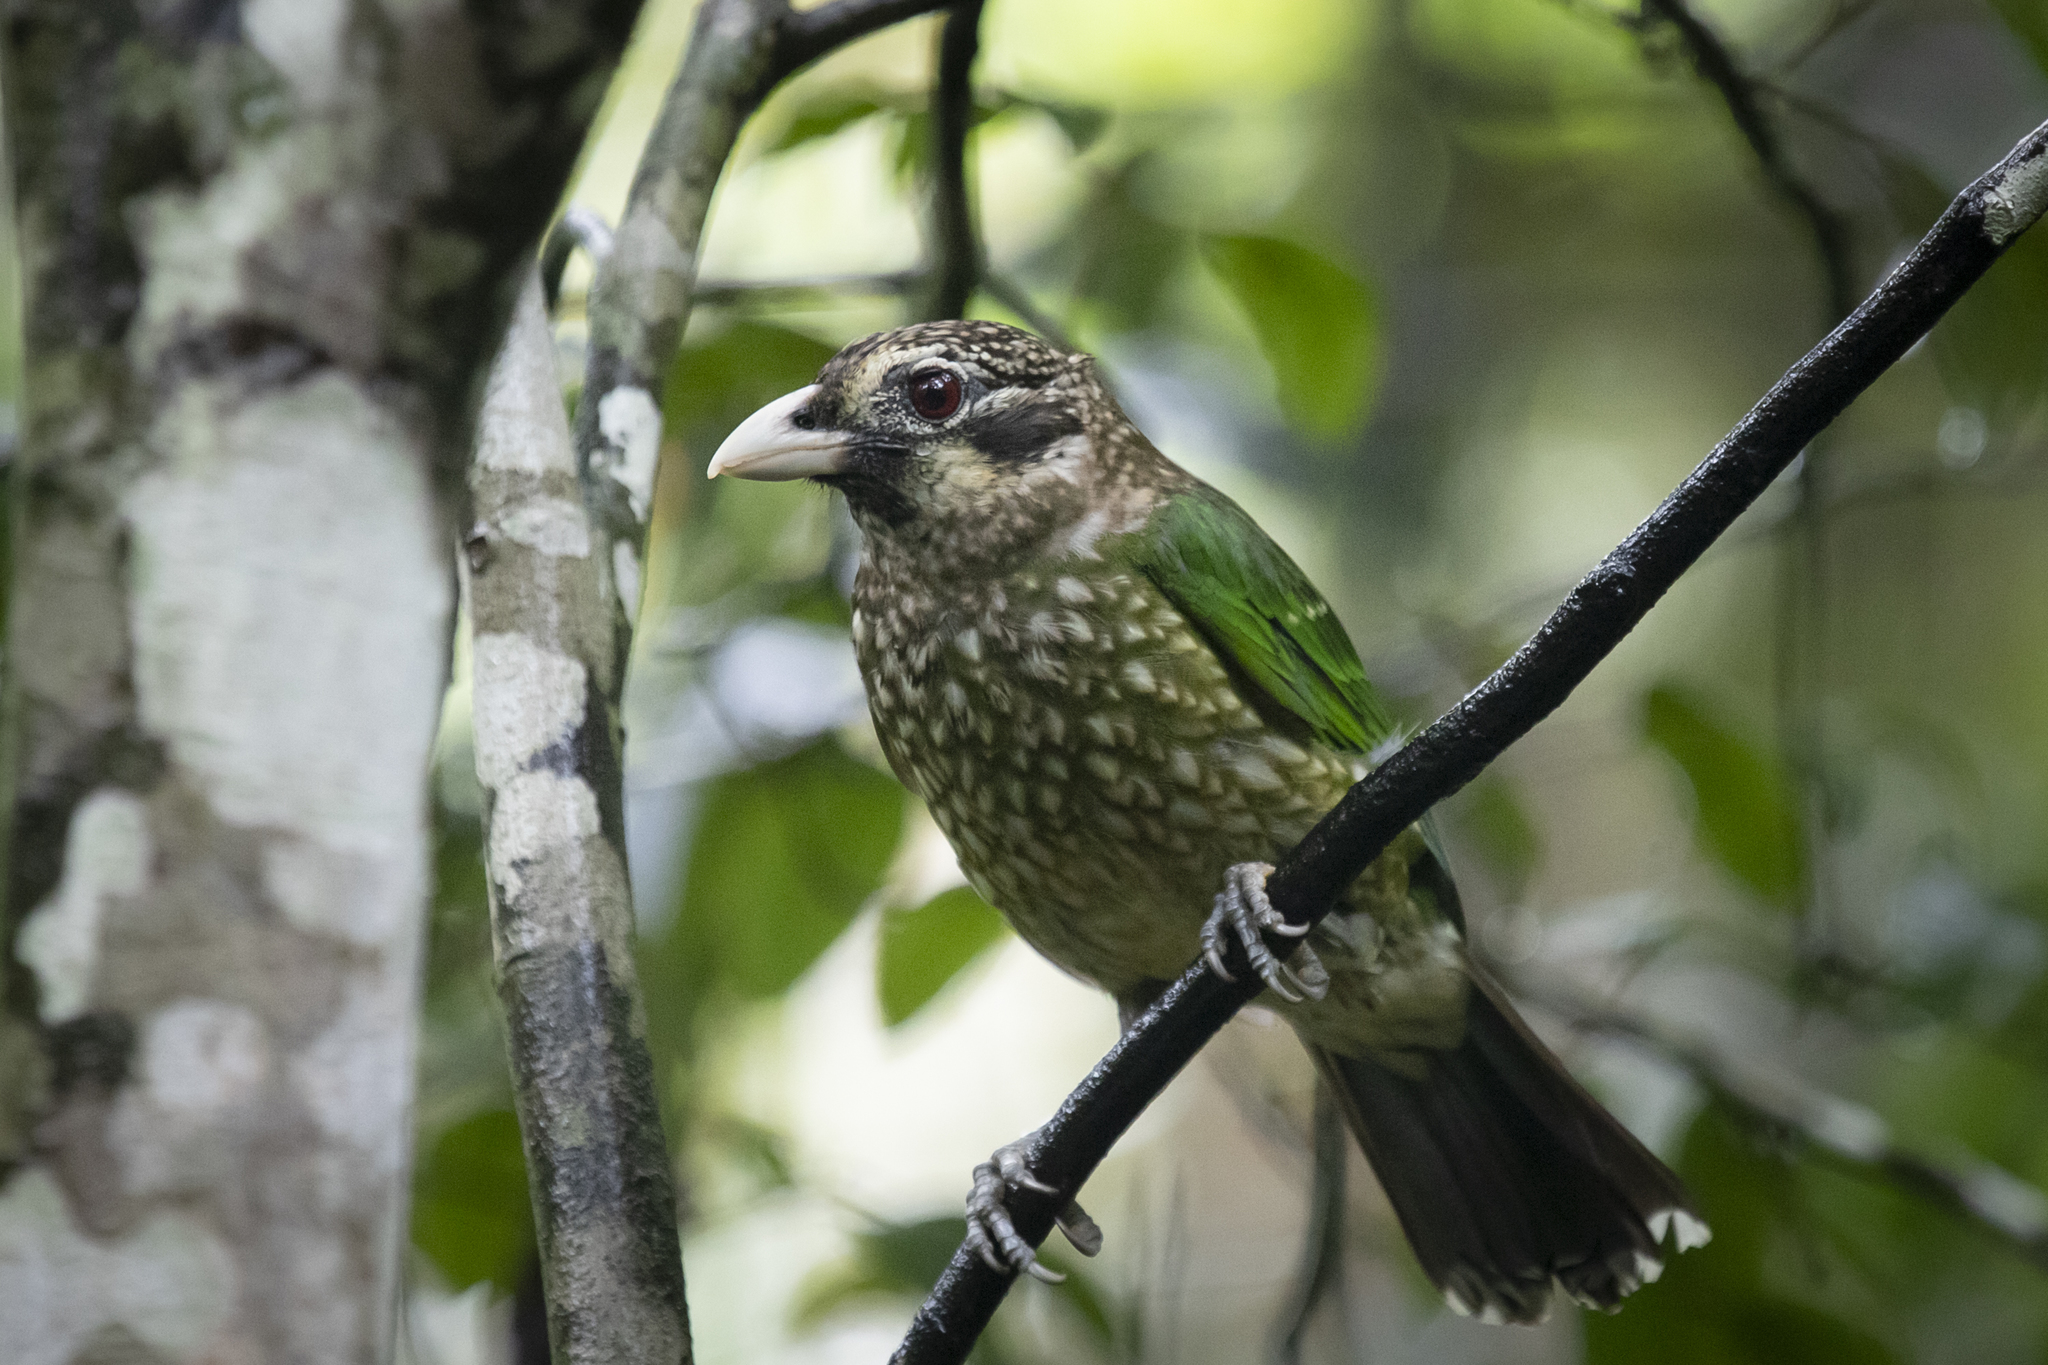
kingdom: Animalia
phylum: Chordata
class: Aves
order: Passeriformes
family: Ptilonorhynchidae
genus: Ailuroedus
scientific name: Ailuroedus maculosus
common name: Spotted catbird
